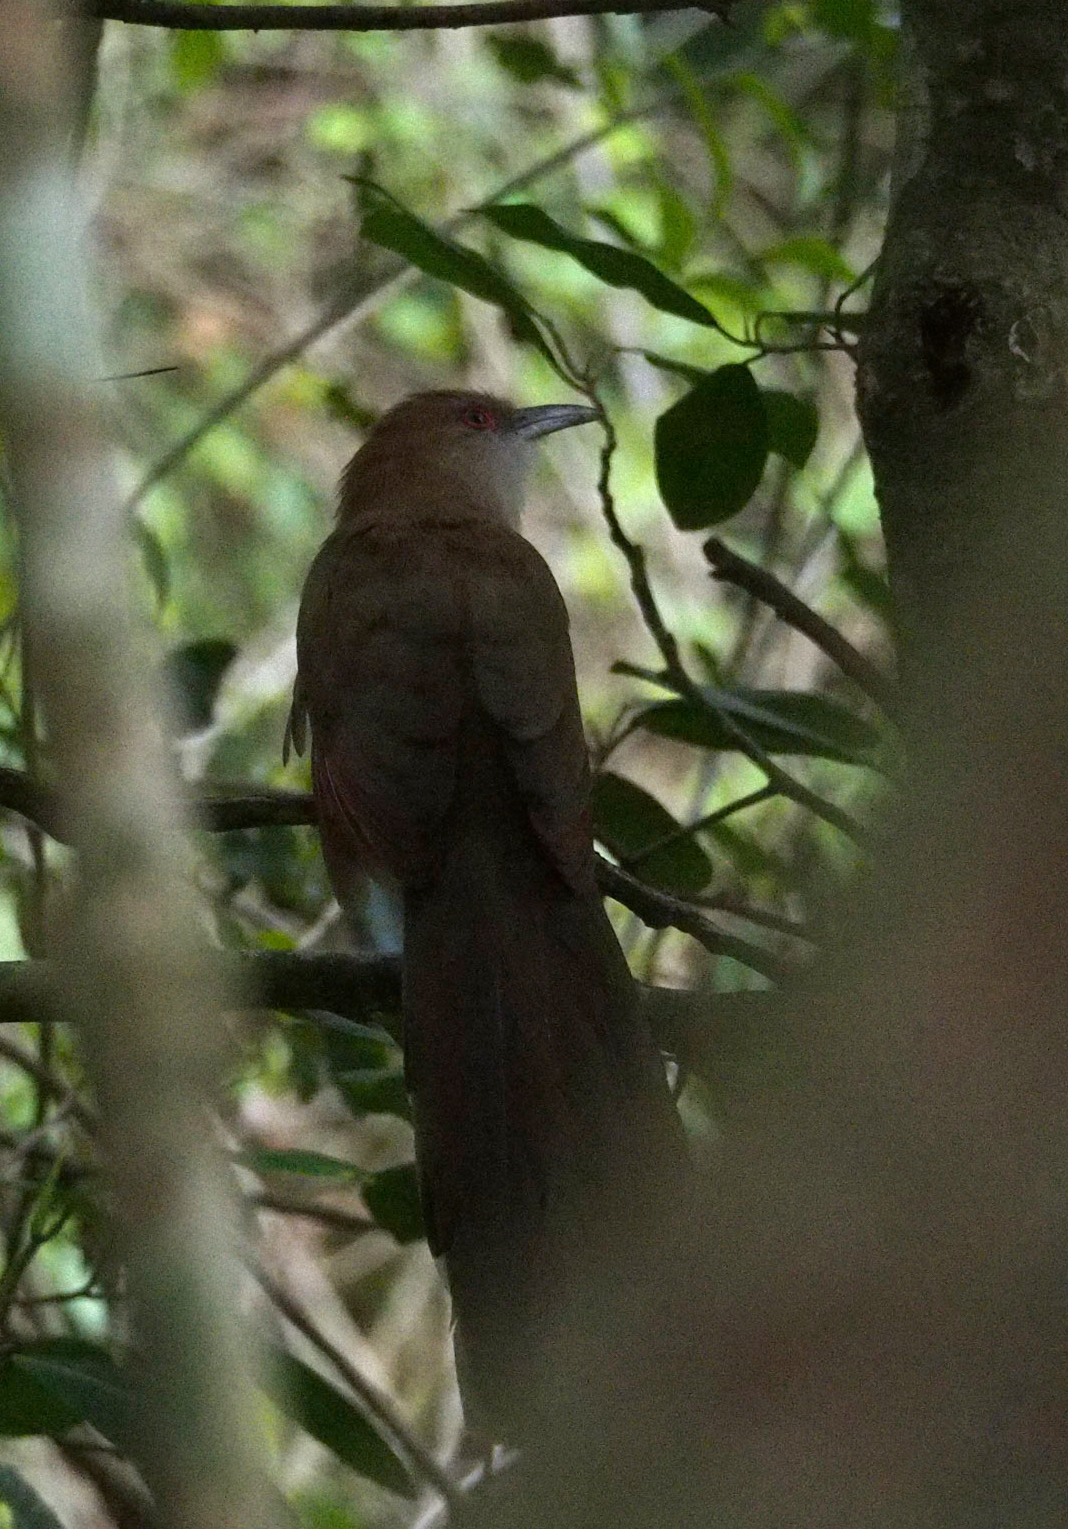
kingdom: Animalia
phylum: Chordata
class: Aves
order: Cuculiformes
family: Cuculidae
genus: Saurothera
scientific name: Saurothera merlini
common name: Great lizard-cuckoo
